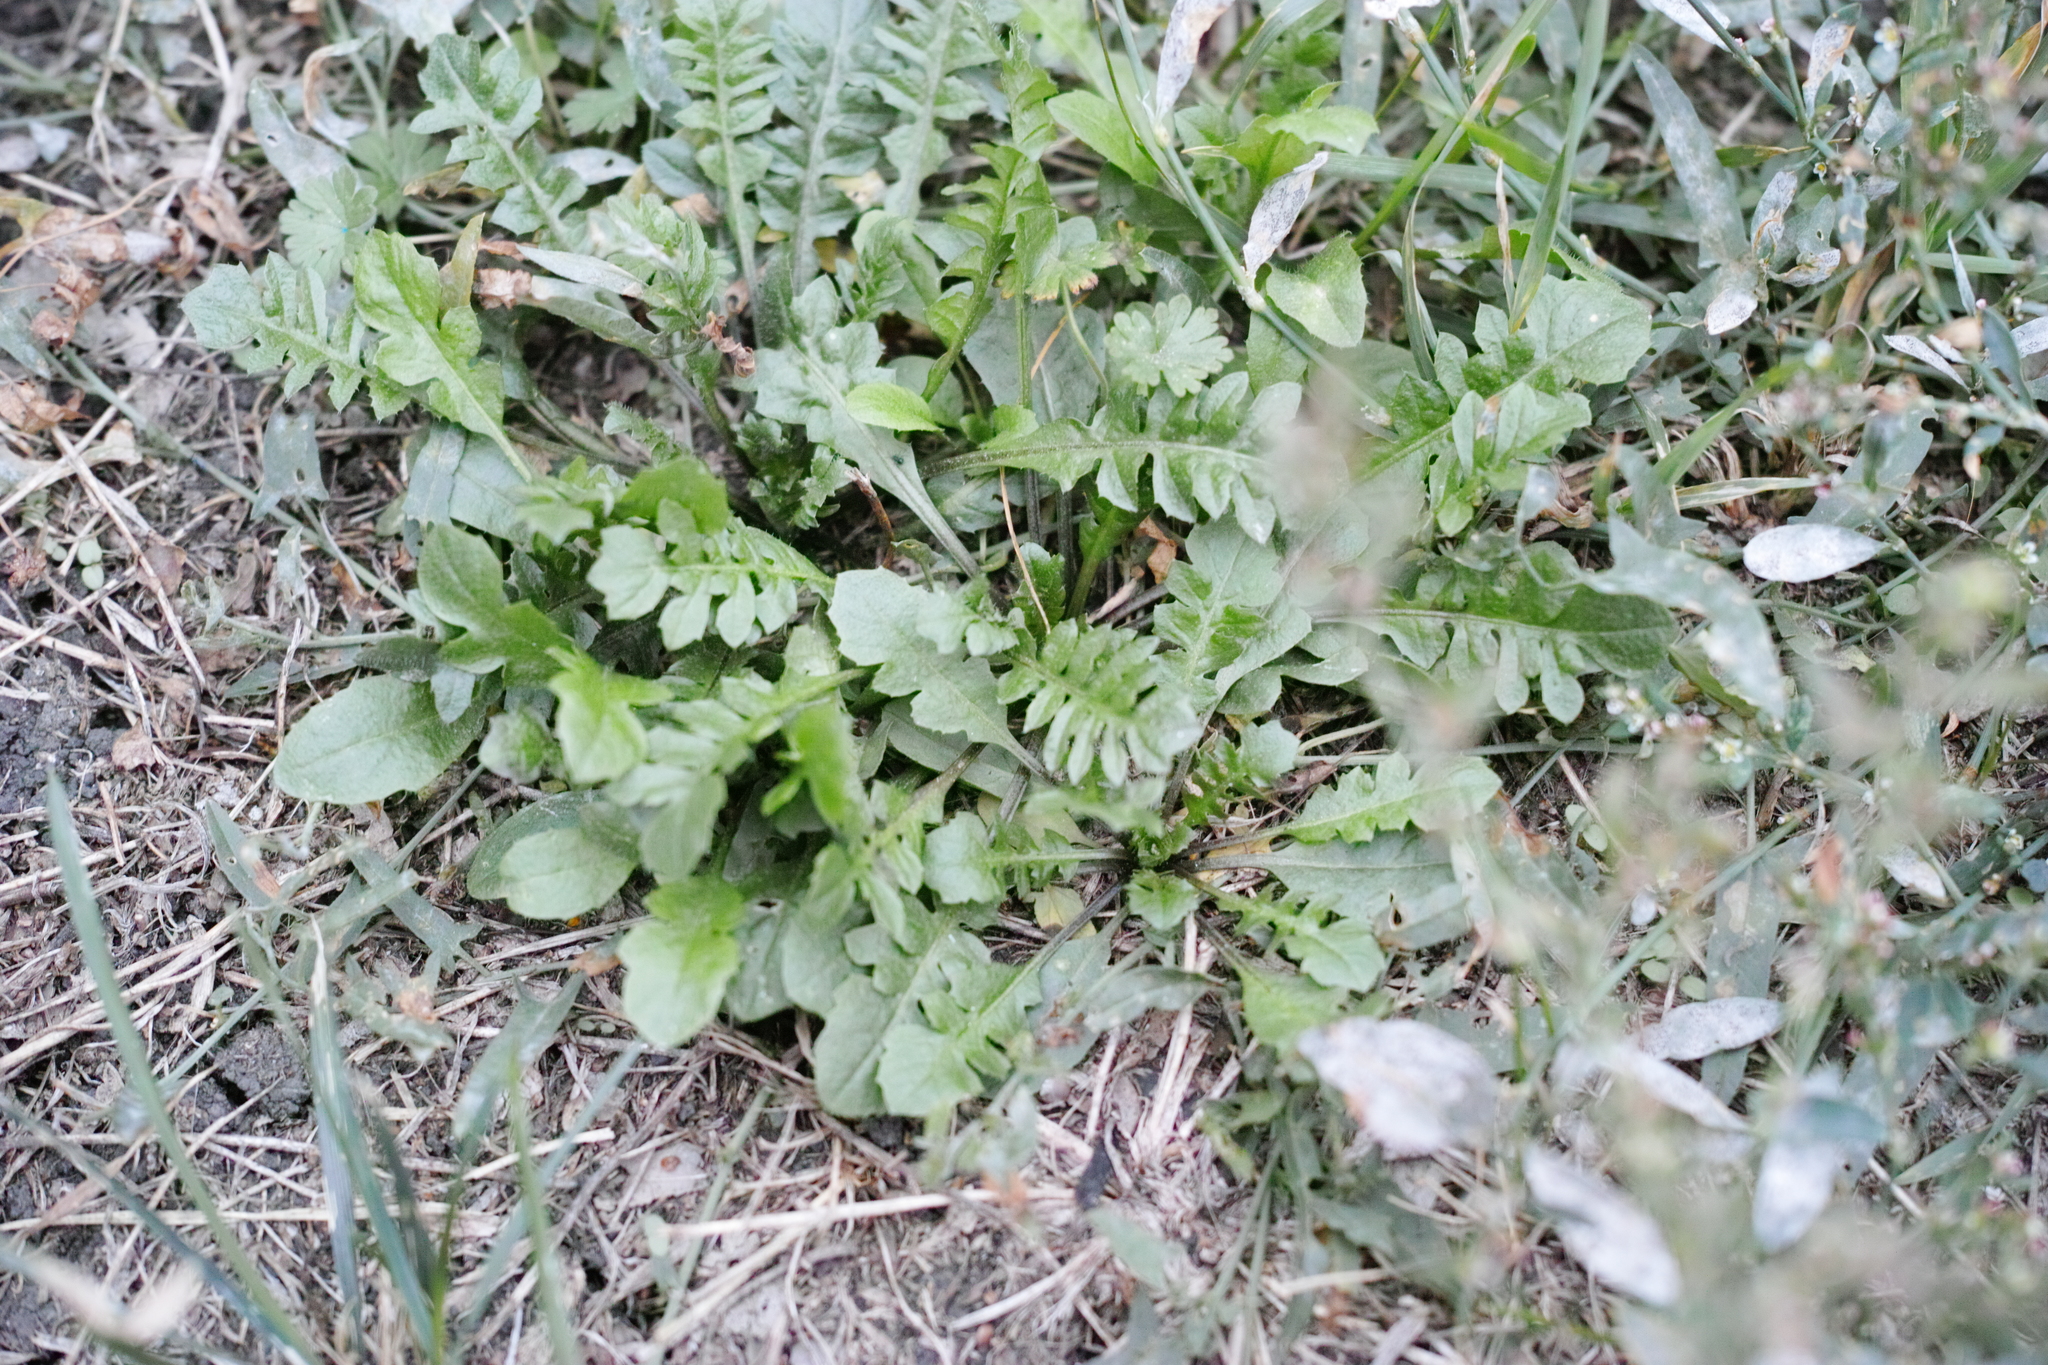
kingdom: Plantae
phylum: Tracheophyta
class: Magnoliopsida
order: Brassicales
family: Brassicaceae
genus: Capsella
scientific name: Capsella bursa-pastoris
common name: Shepherd's purse
